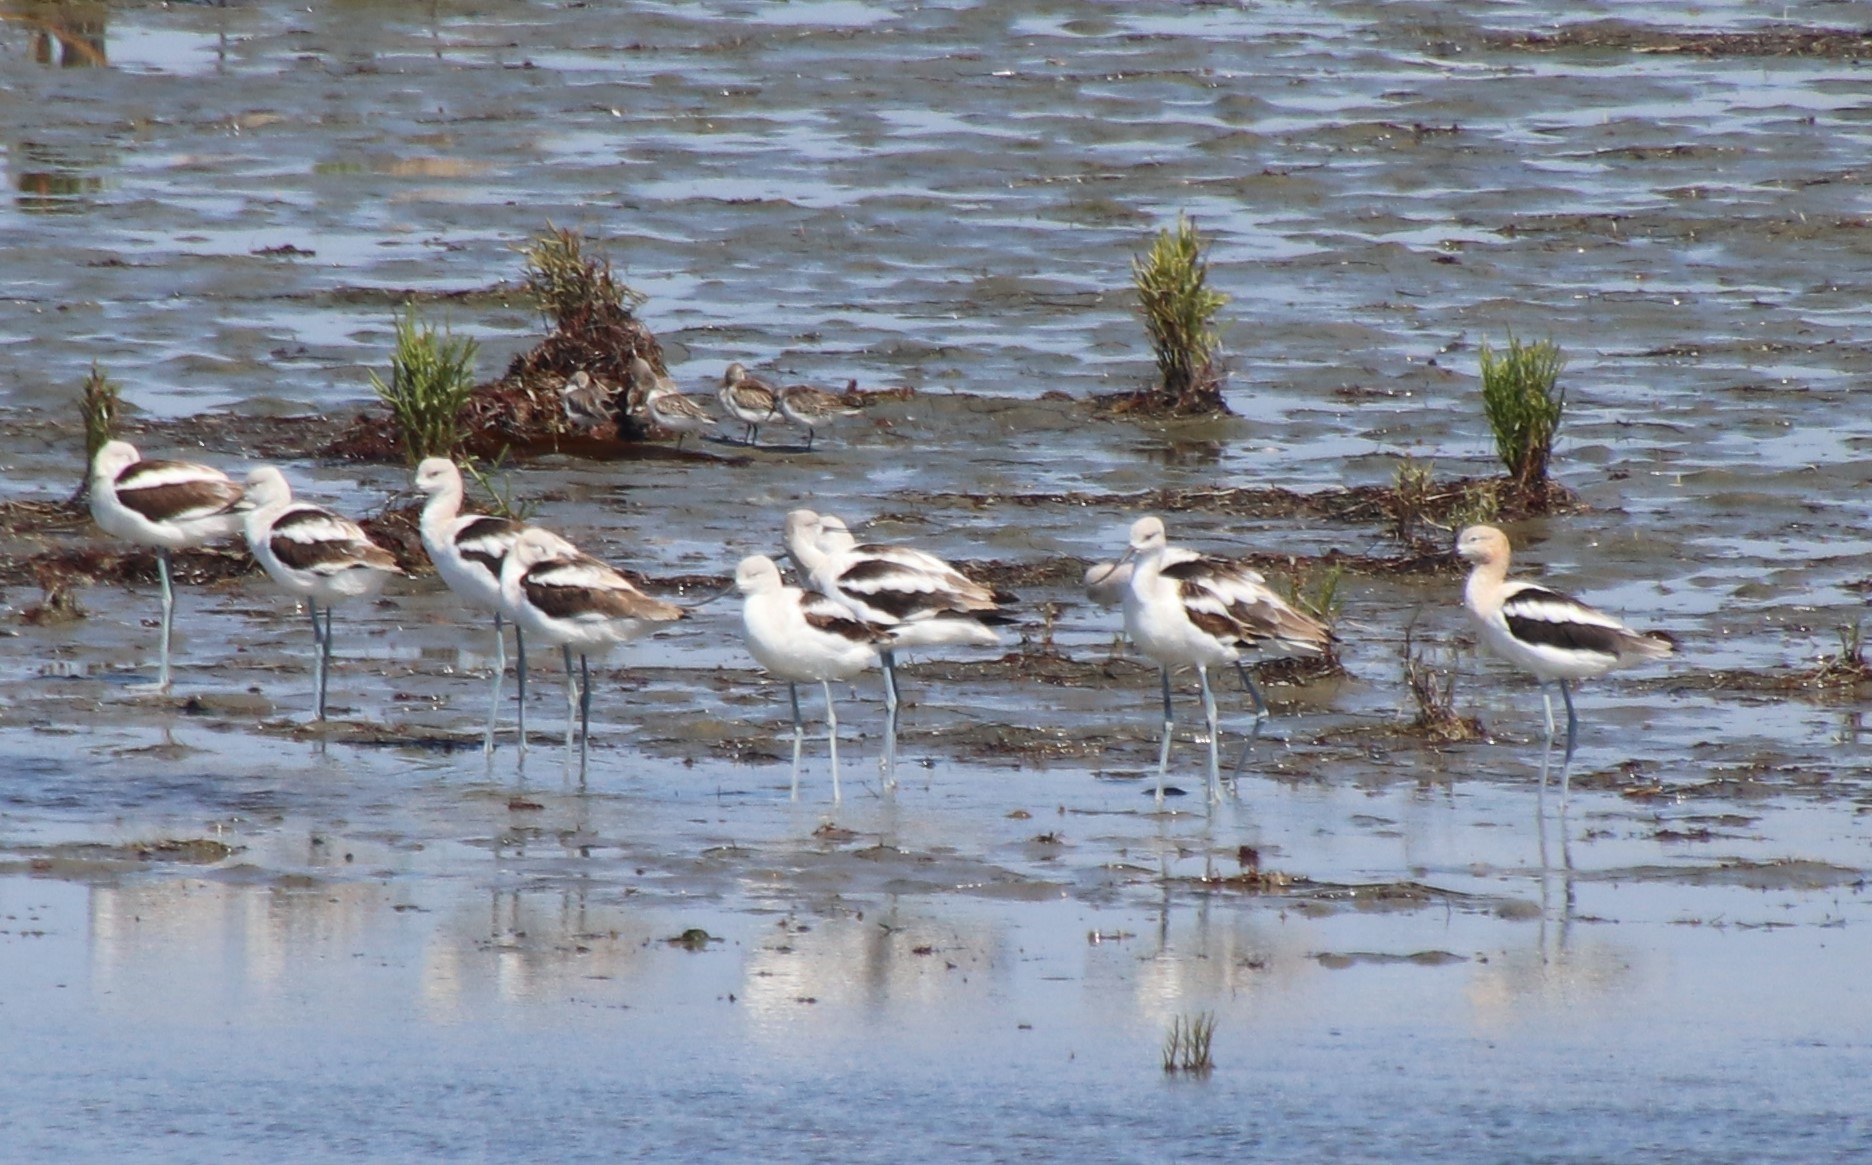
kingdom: Animalia
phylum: Chordata
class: Aves
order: Charadriiformes
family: Recurvirostridae
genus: Recurvirostra
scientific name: Recurvirostra americana
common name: American avocet
